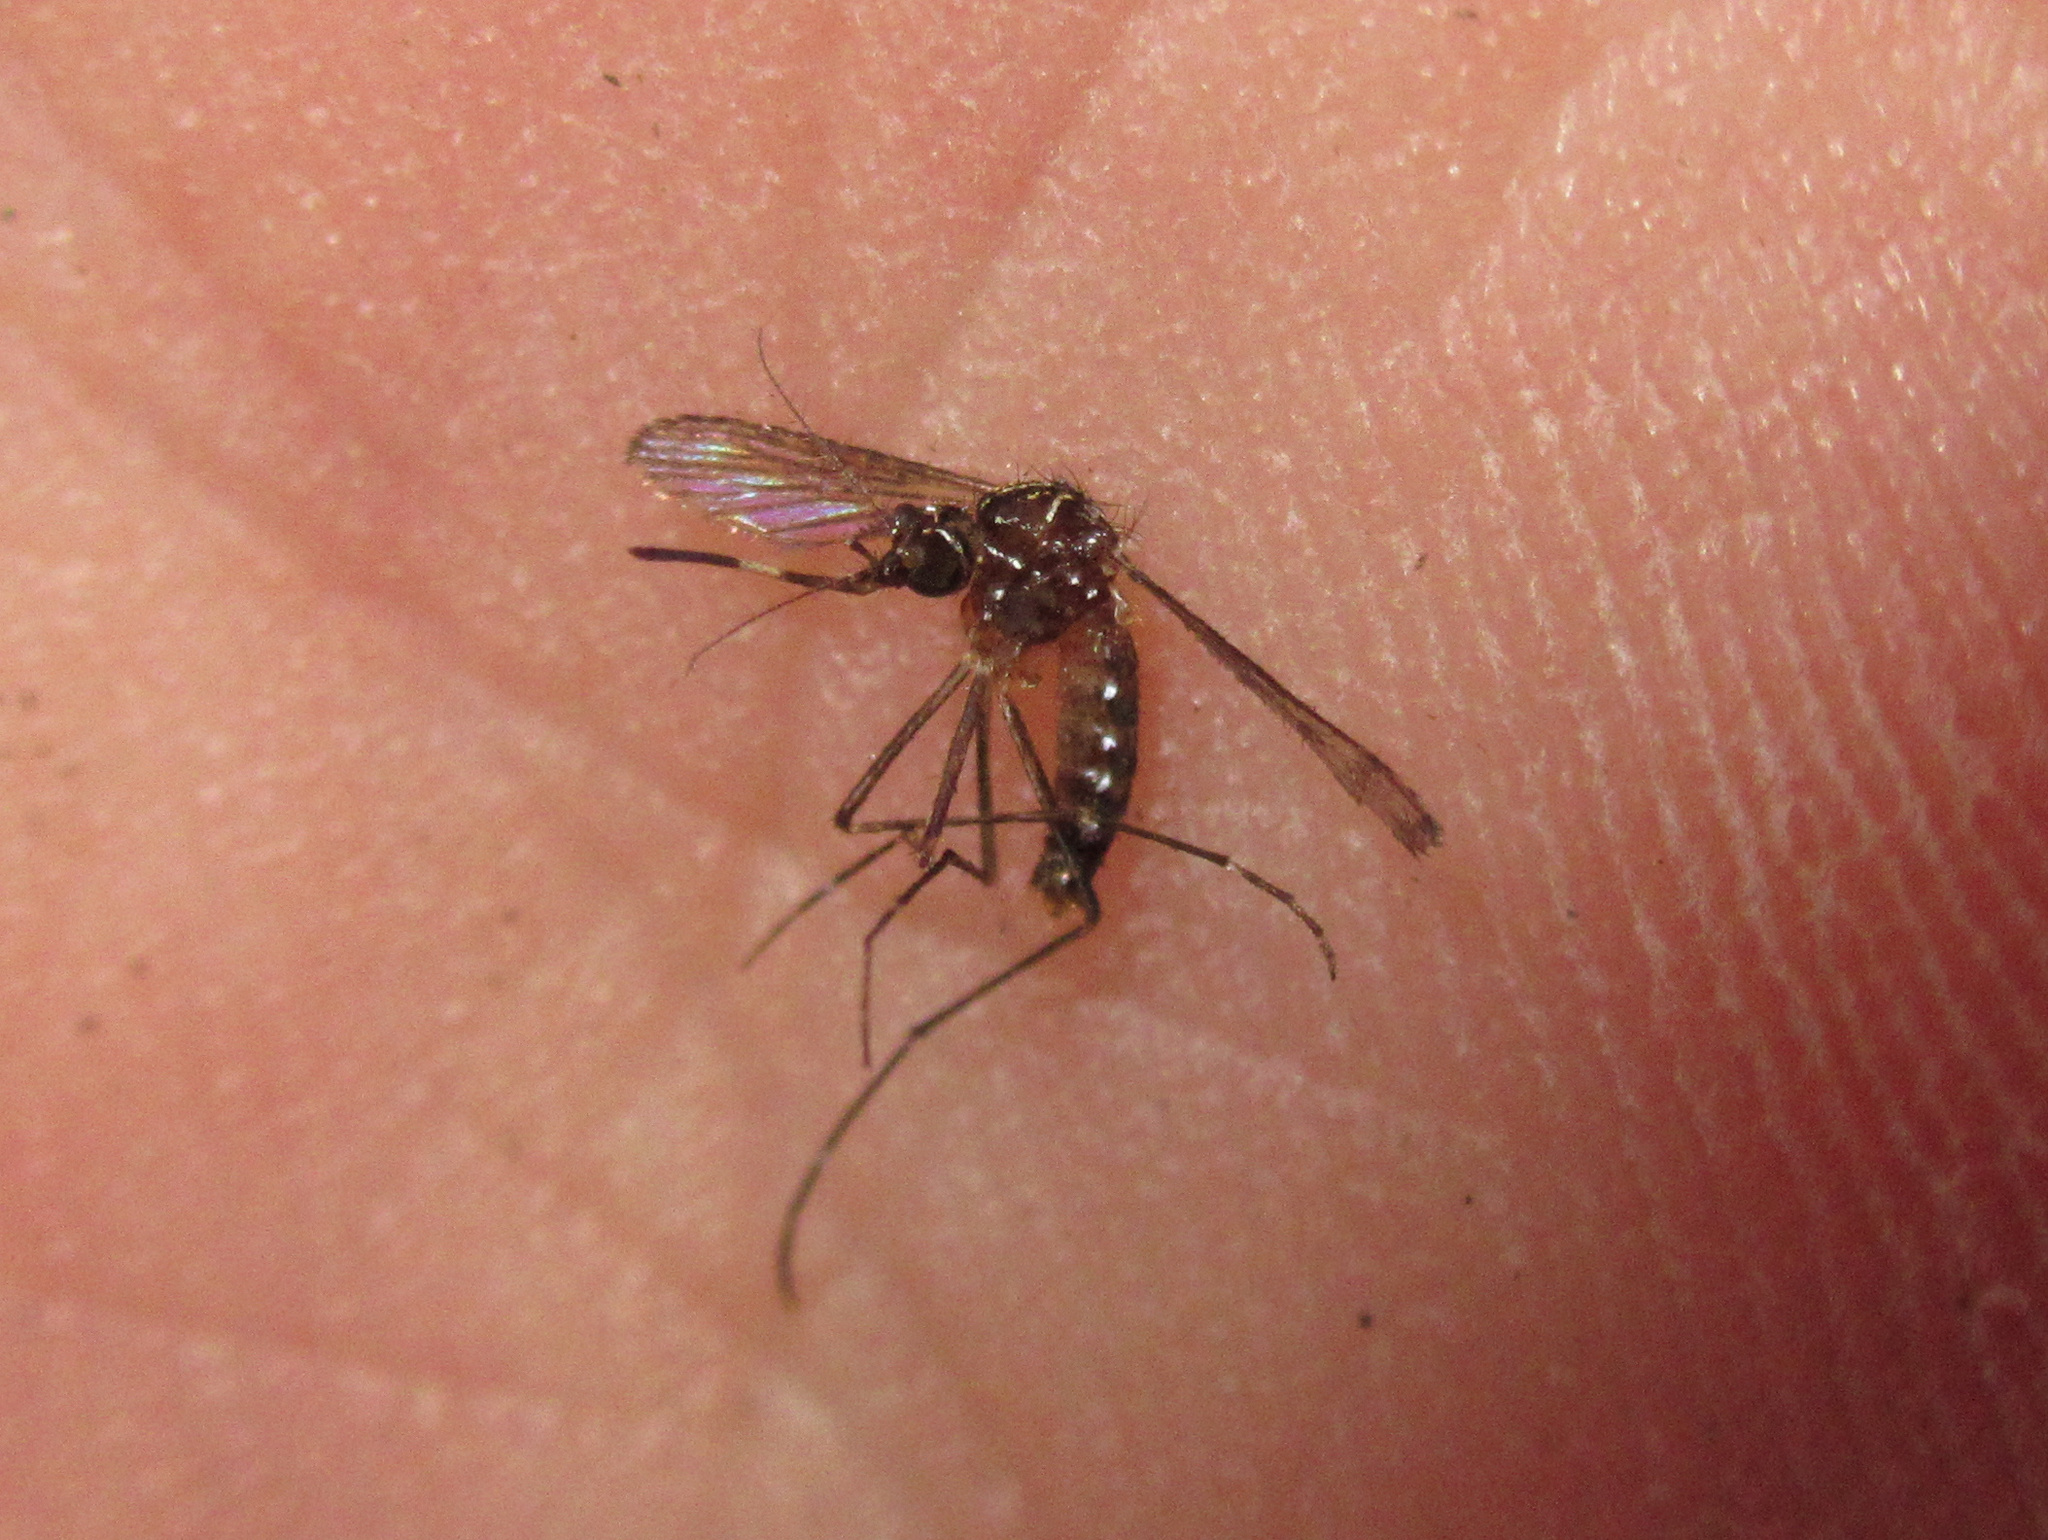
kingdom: Animalia
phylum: Arthropoda
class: Insecta
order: Diptera
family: Culicidae
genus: Aedes
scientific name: Aedes notoscriptus
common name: Australian backyard mosquito
